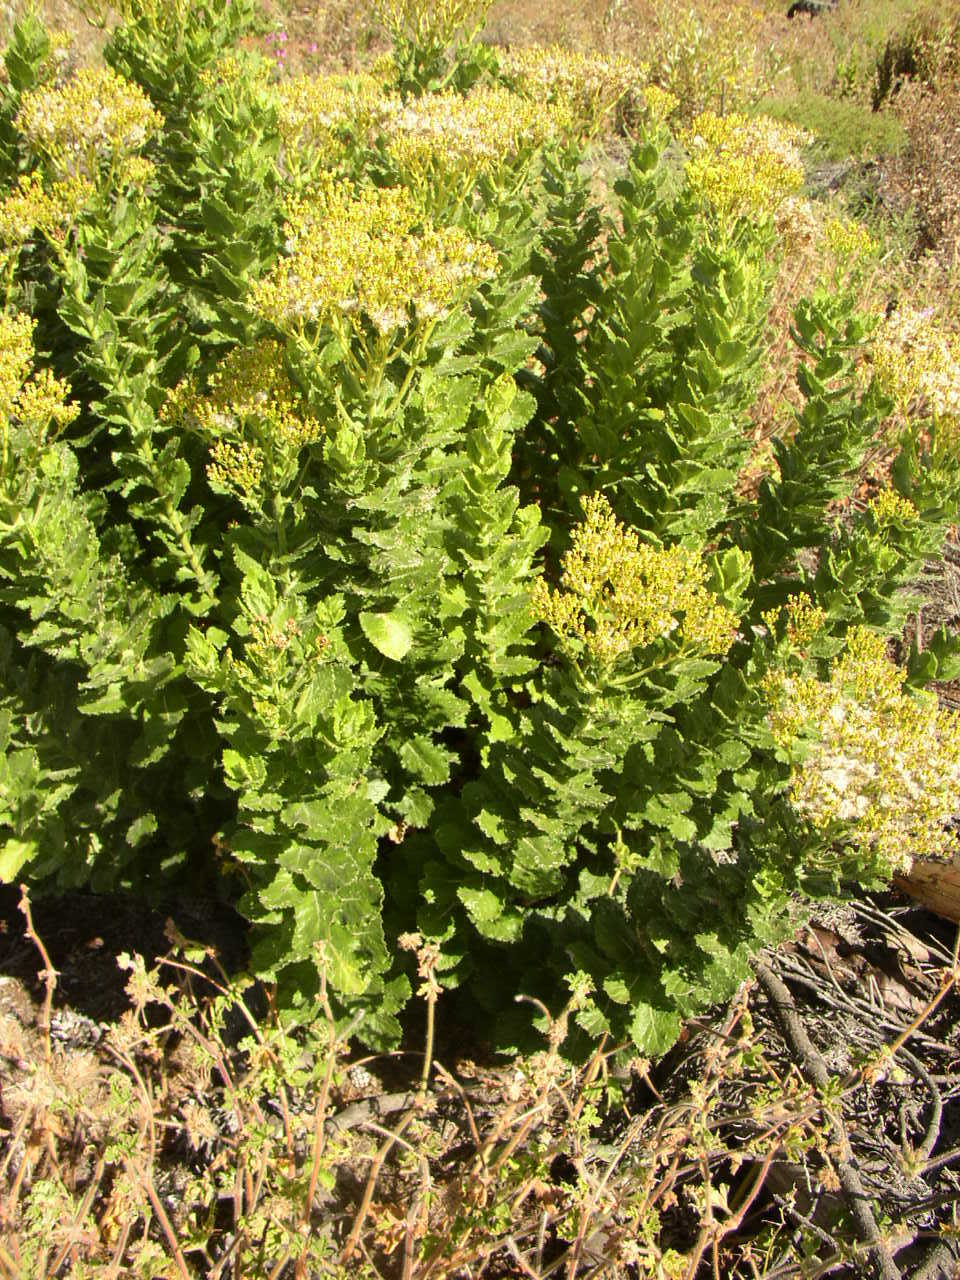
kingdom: Plantae
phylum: Tracheophyta
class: Magnoliopsida
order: Asterales
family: Asteraceae
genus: Senecio
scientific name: Senecio rigidus
